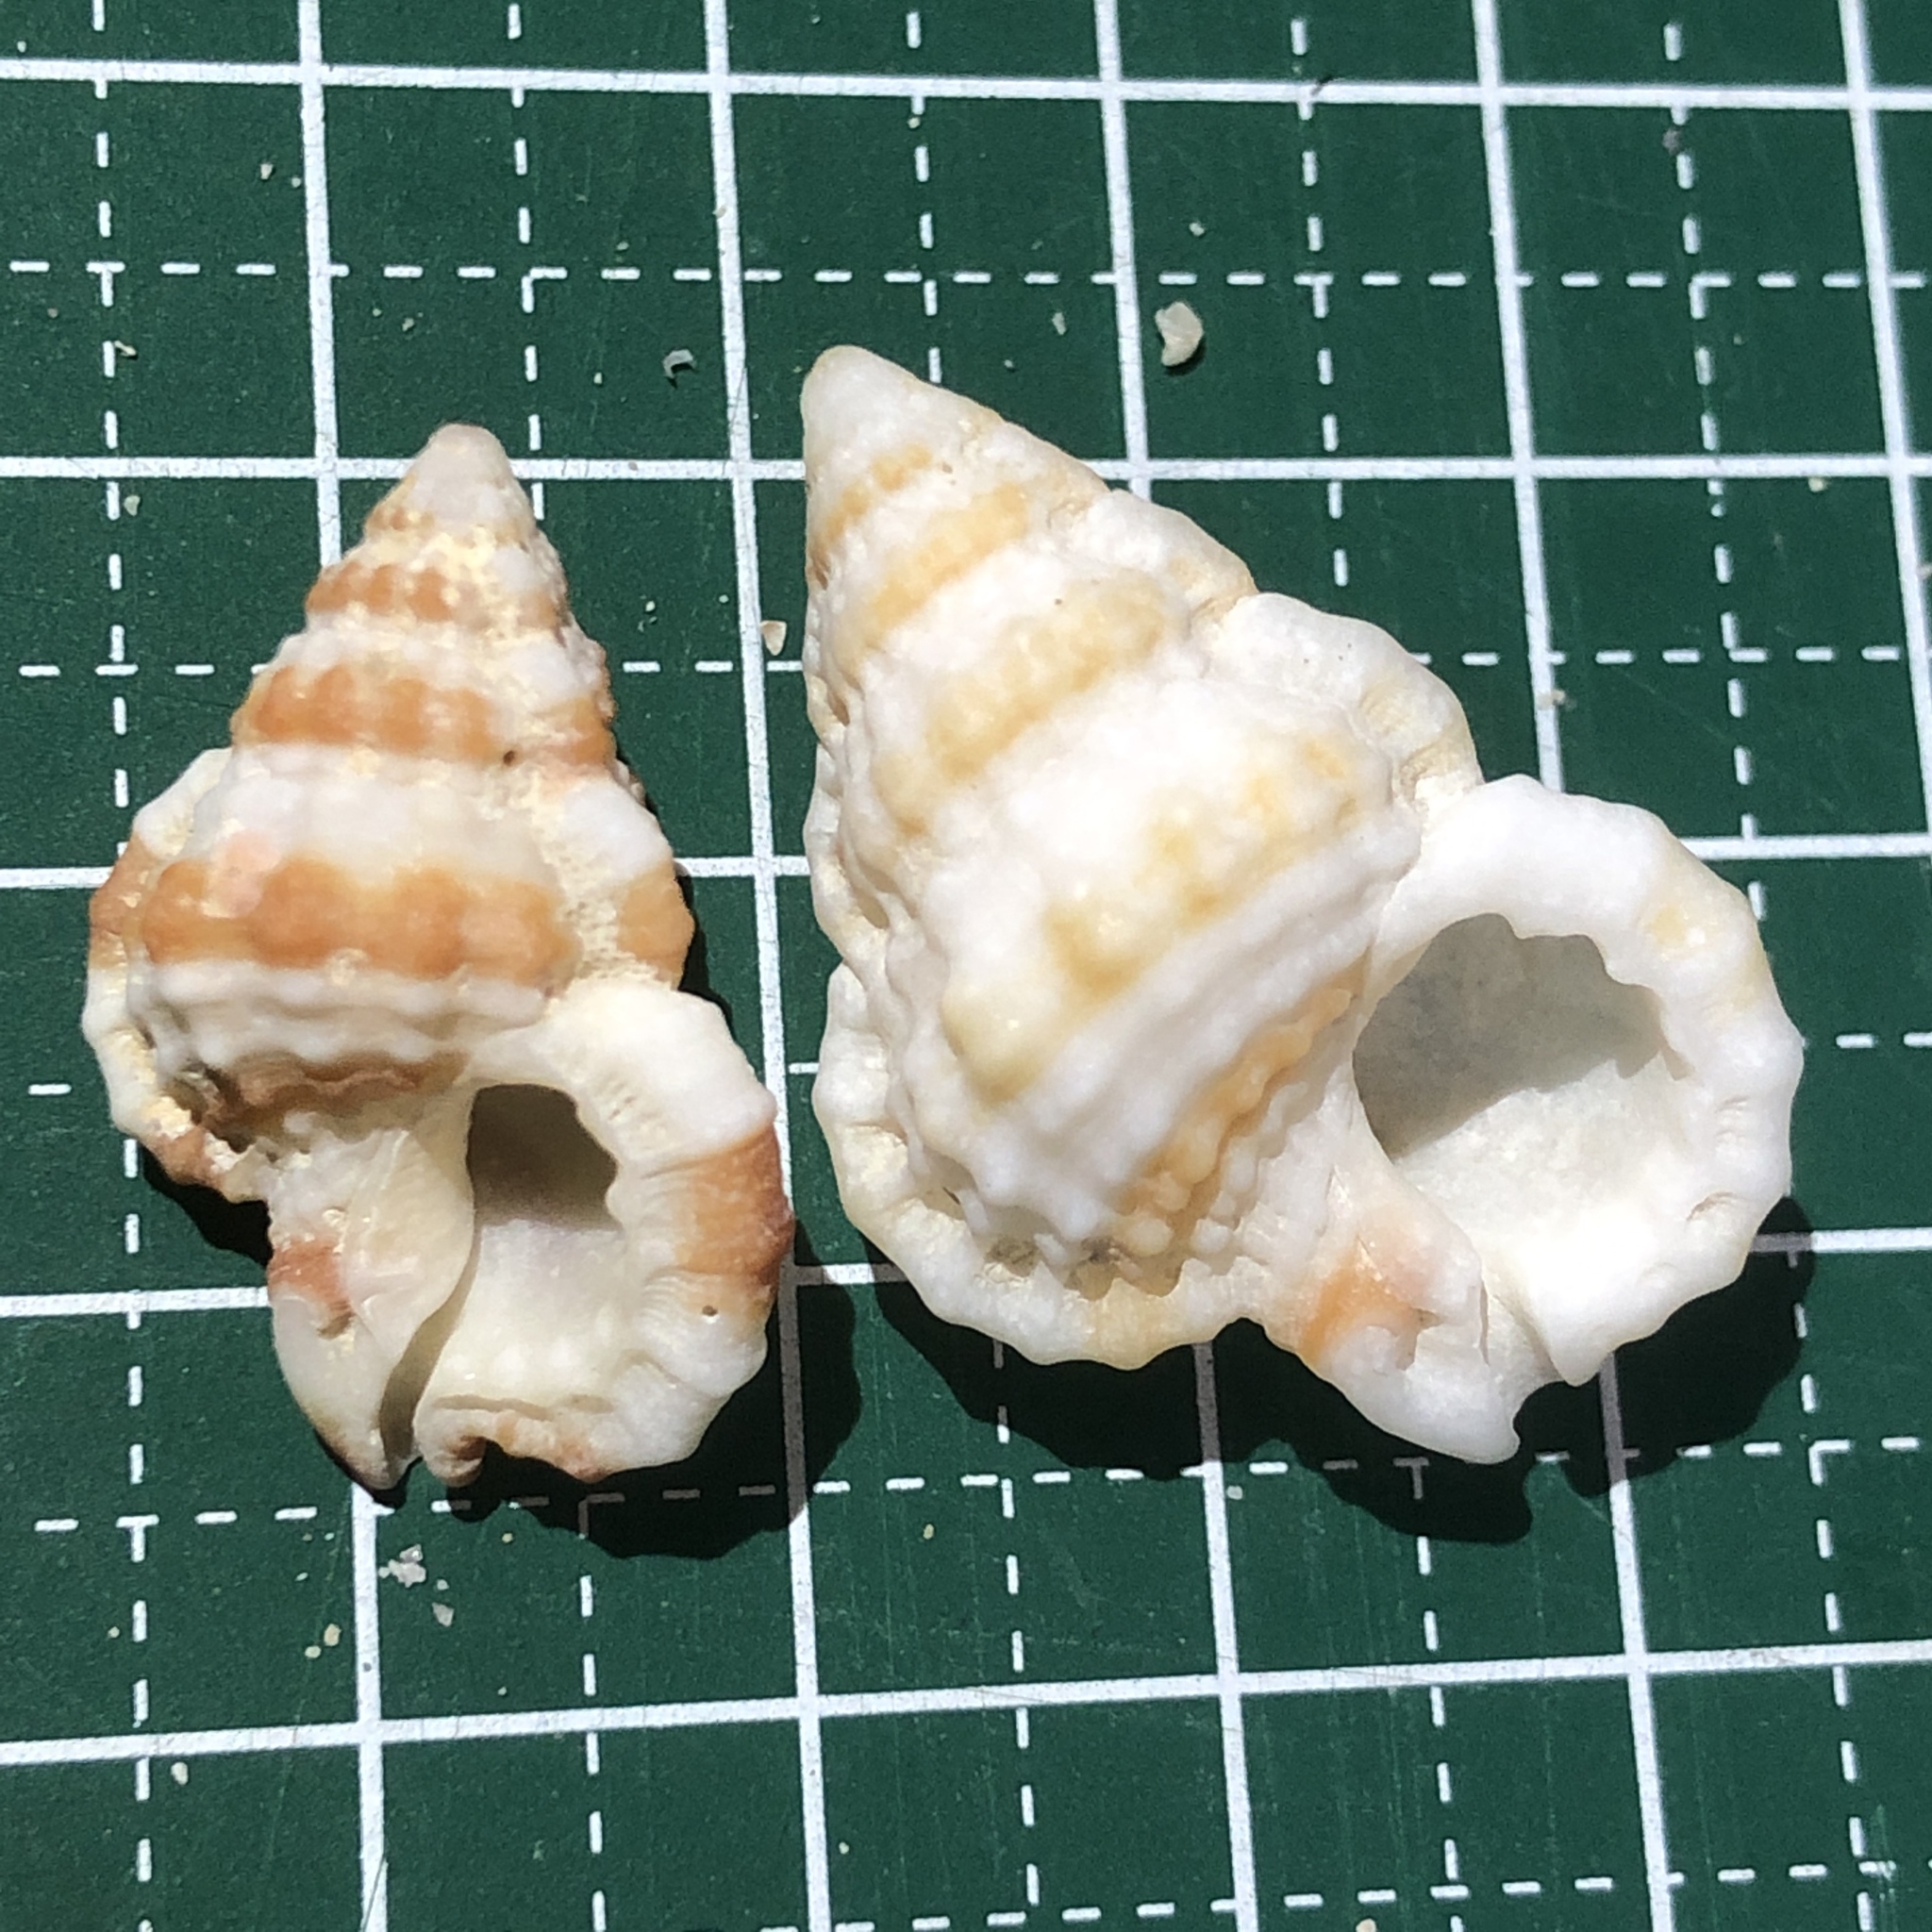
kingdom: Animalia
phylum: Mollusca
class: Gastropoda
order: Littorinimorpha
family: Cymatiidae
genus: Gyrineum
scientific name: Gyrineum gyrinum
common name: Tadpole triton
